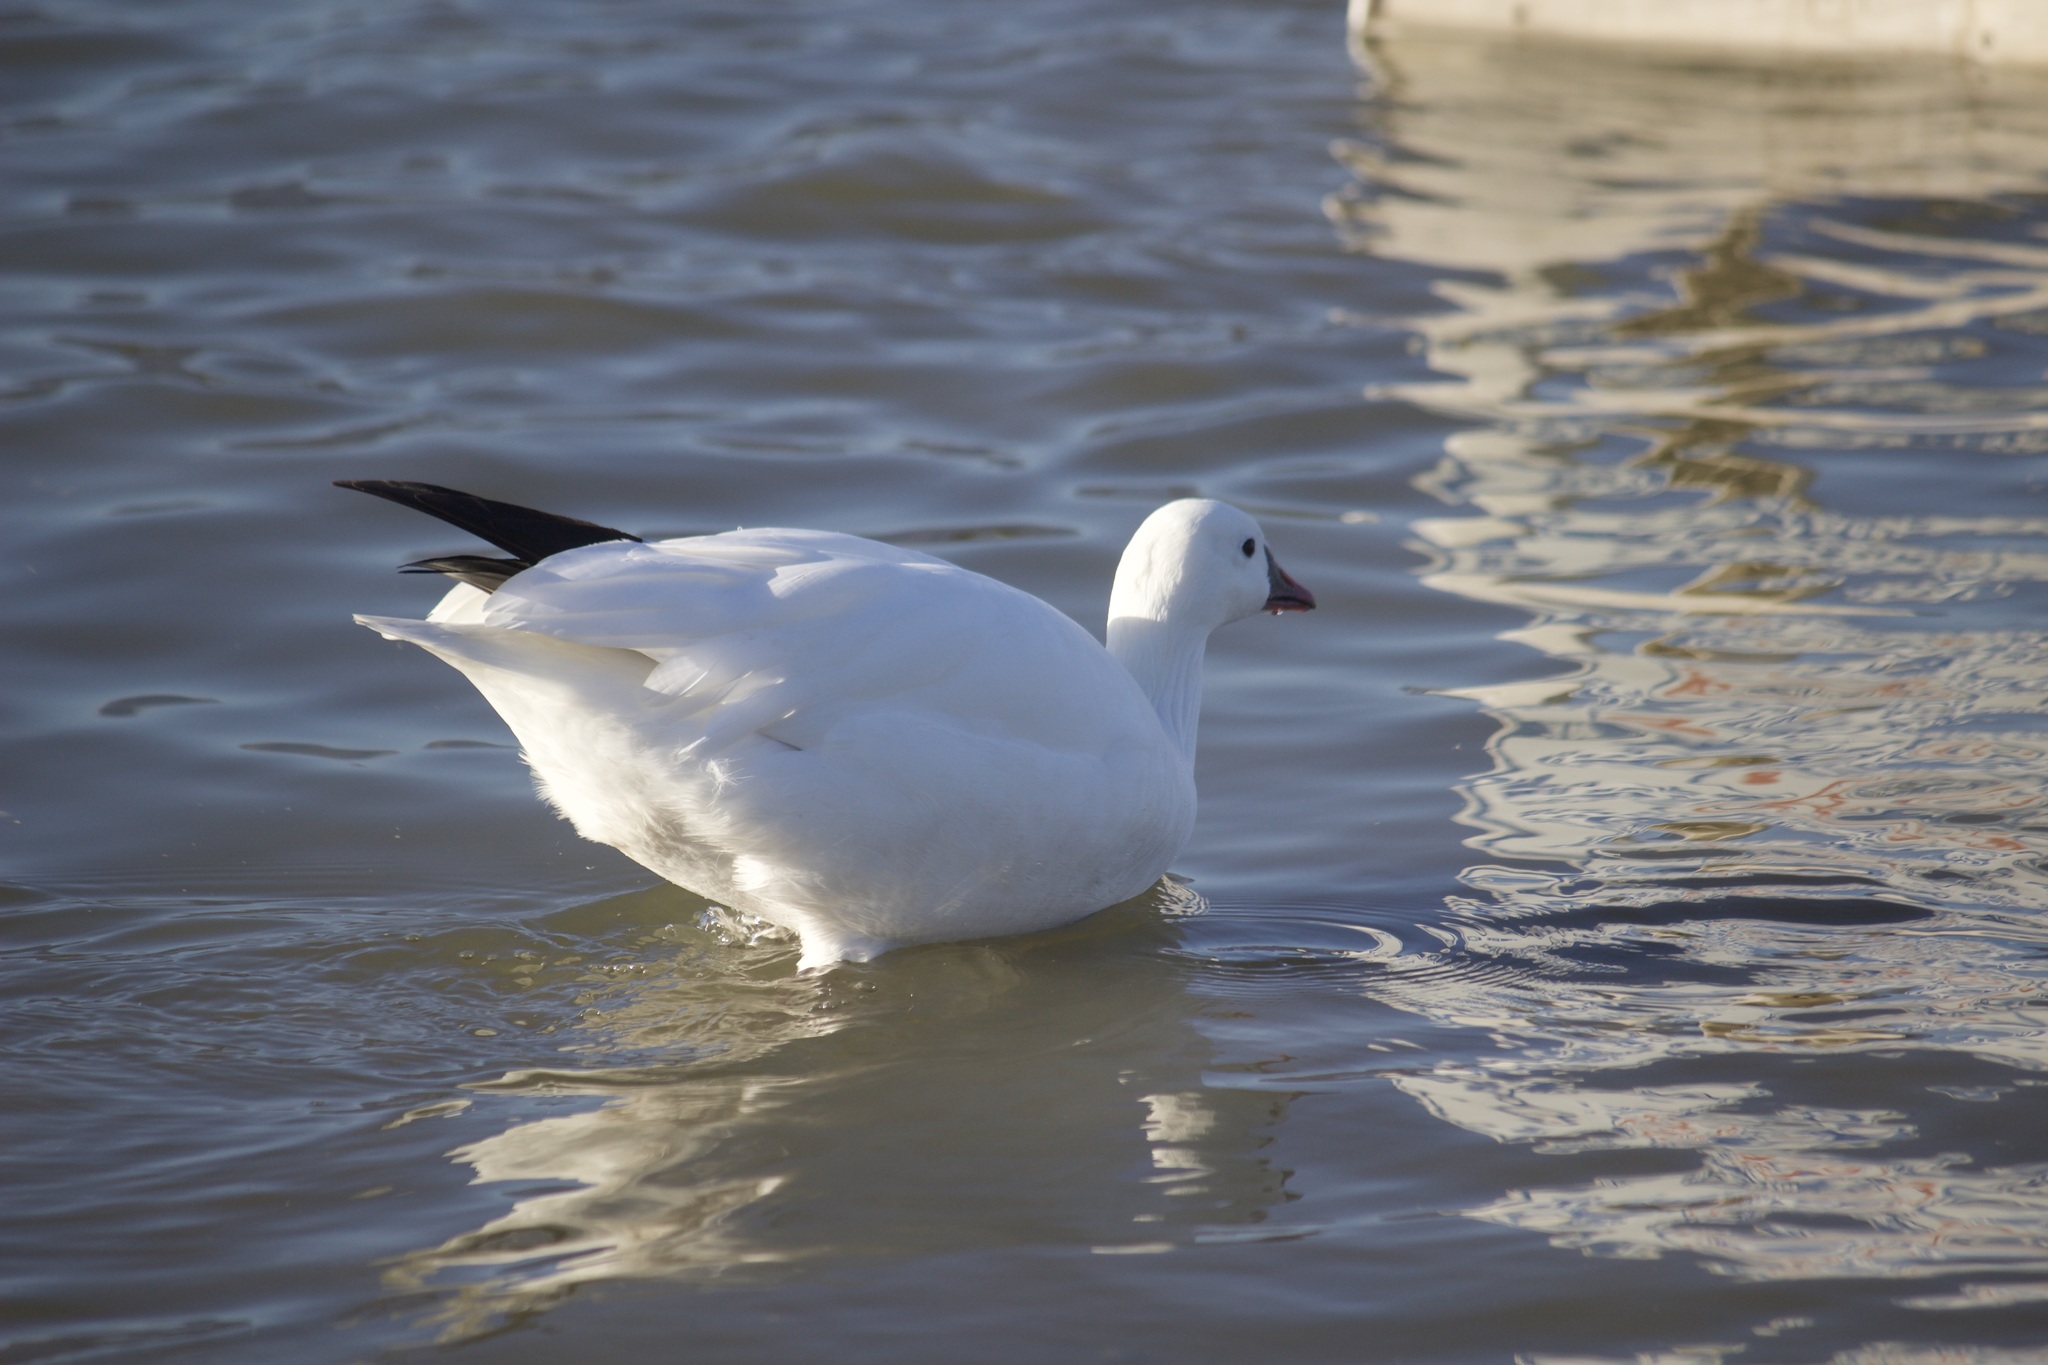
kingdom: Animalia
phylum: Chordata
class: Aves
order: Anseriformes
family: Anatidae
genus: Anser
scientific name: Anser rossii
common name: Ross's goose
